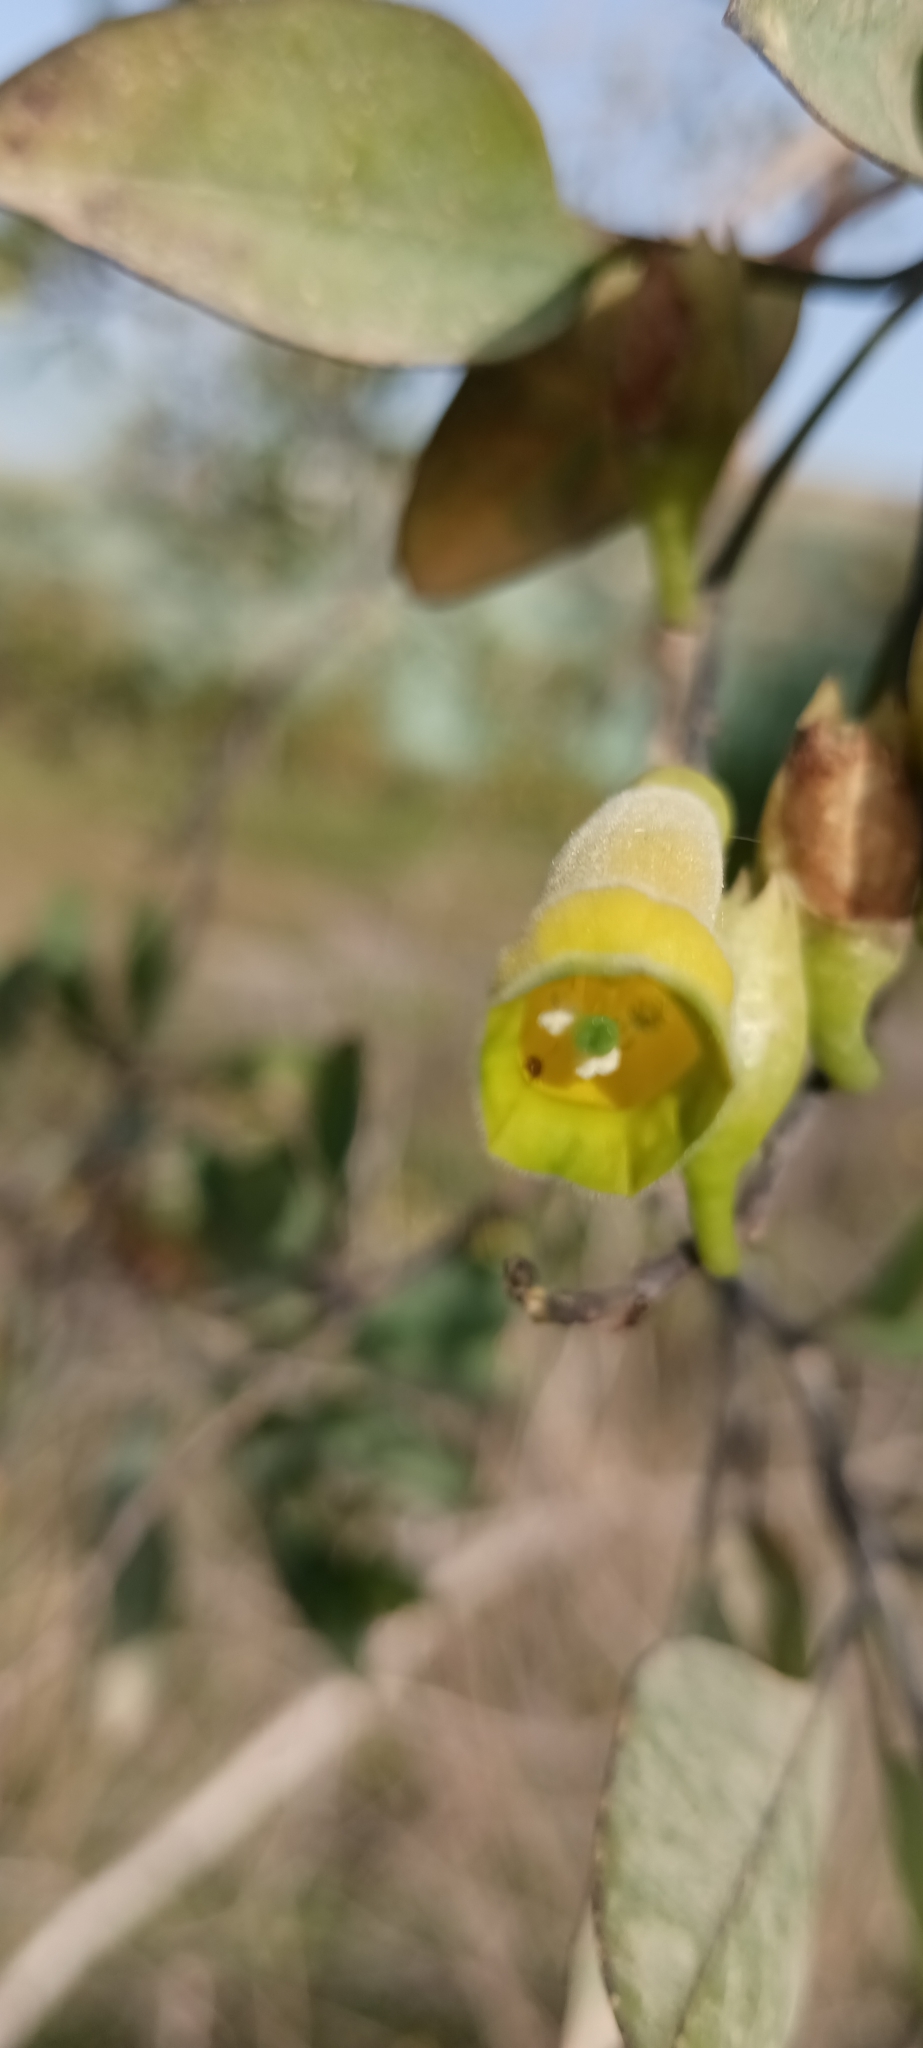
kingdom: Plantae
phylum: Tracheophyta
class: Magnoliopsida
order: Solanales
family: Solanaceae
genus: Nicotiana
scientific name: Nicotiana glauca
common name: Tree tobacco
